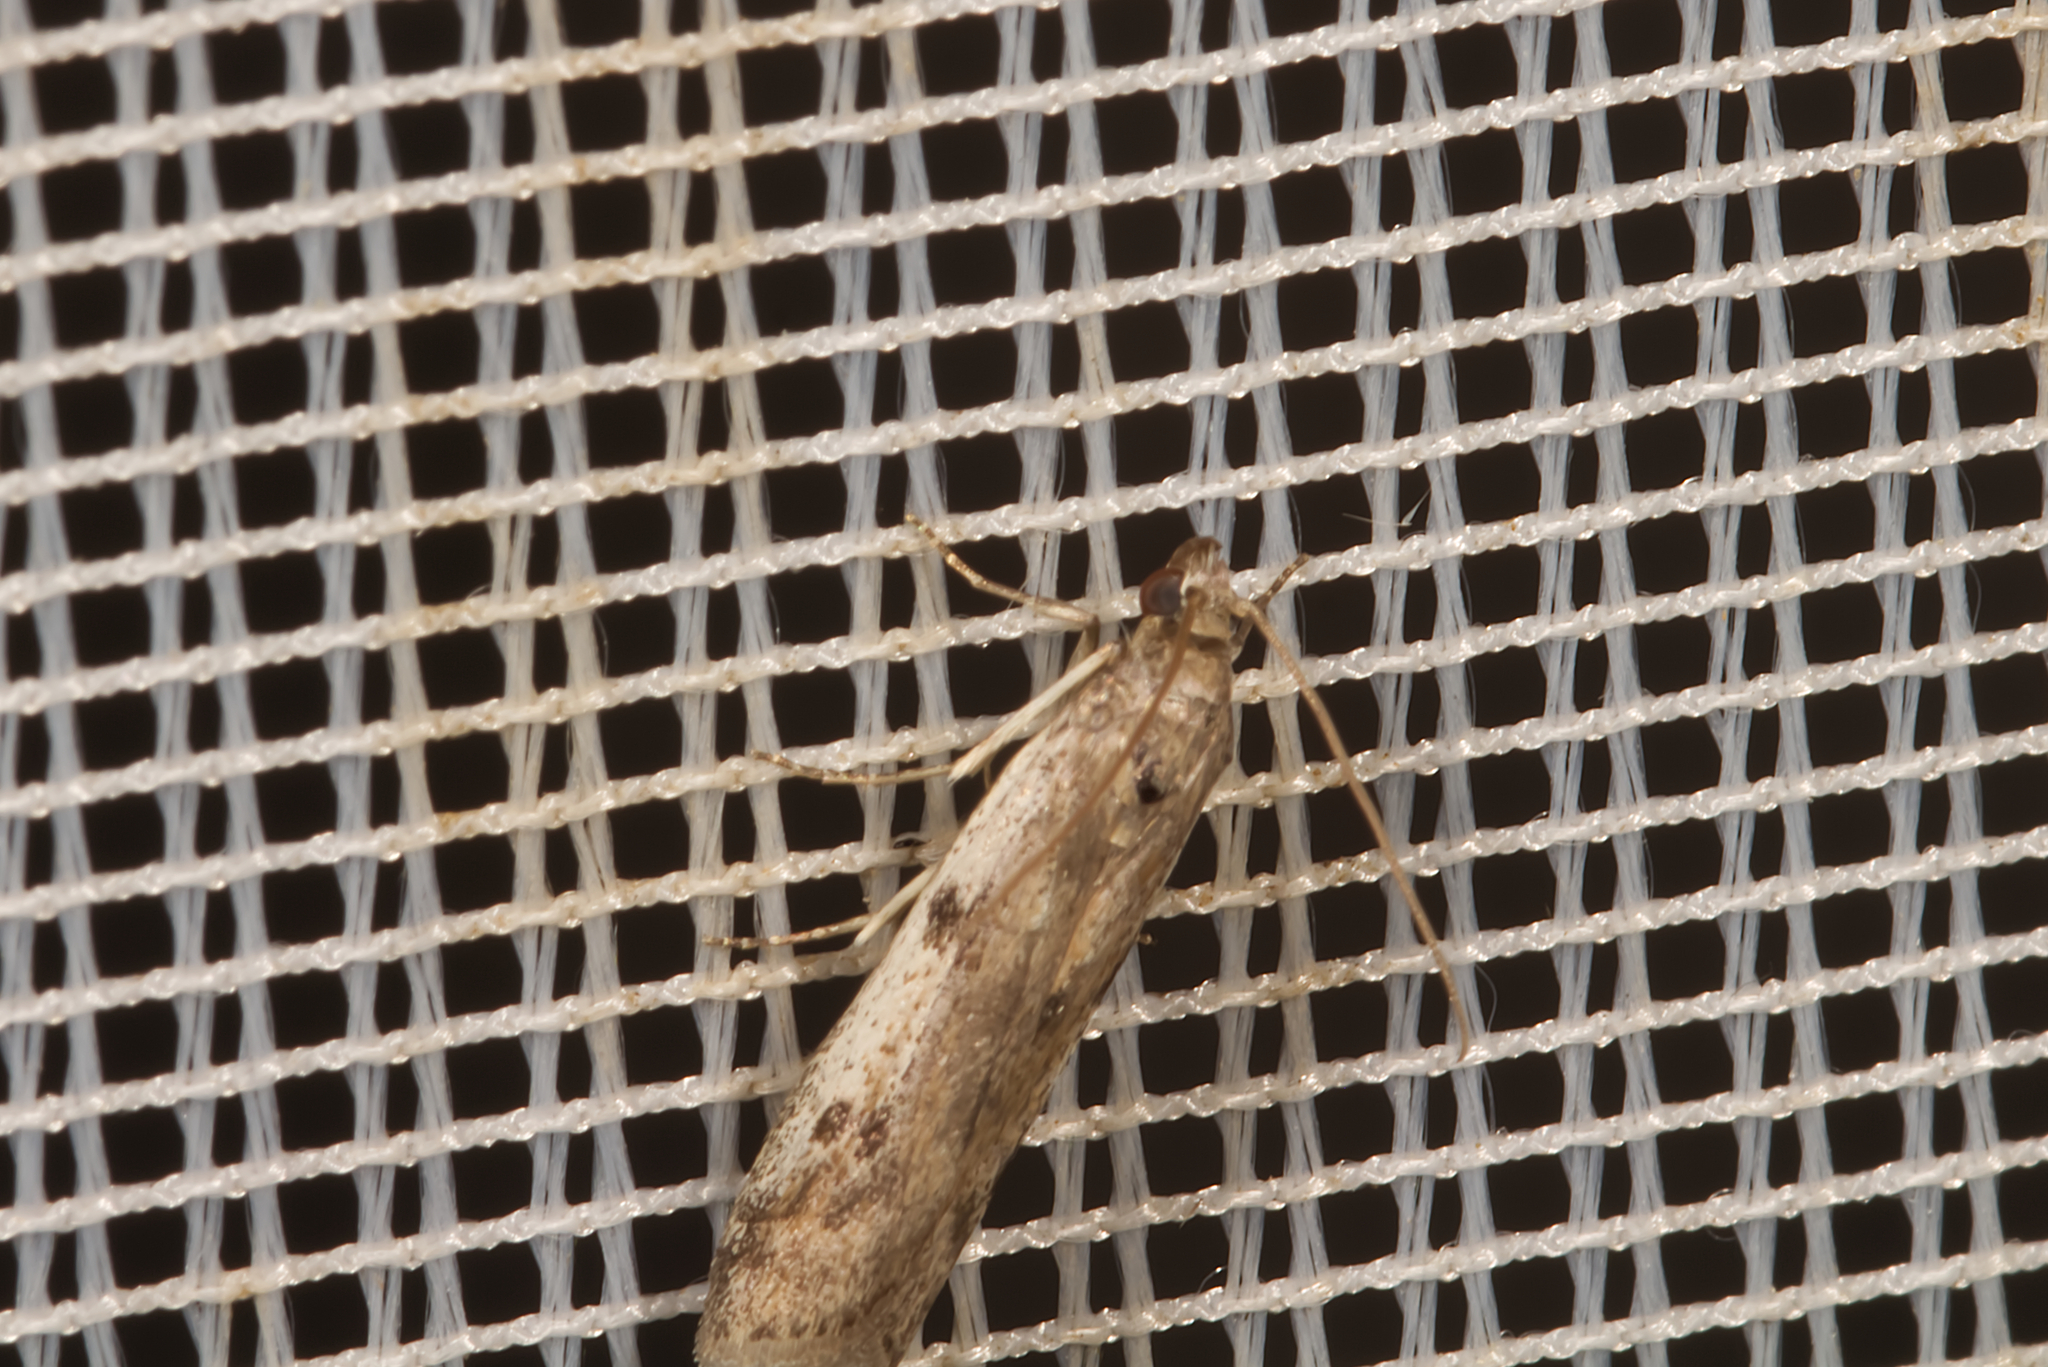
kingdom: Animalia
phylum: Arthropoda
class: Insecta
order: Lepidoptera
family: Pyralidae
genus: Phycitodes
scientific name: Phycitodes binaevella
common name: Ermine knot-horn
